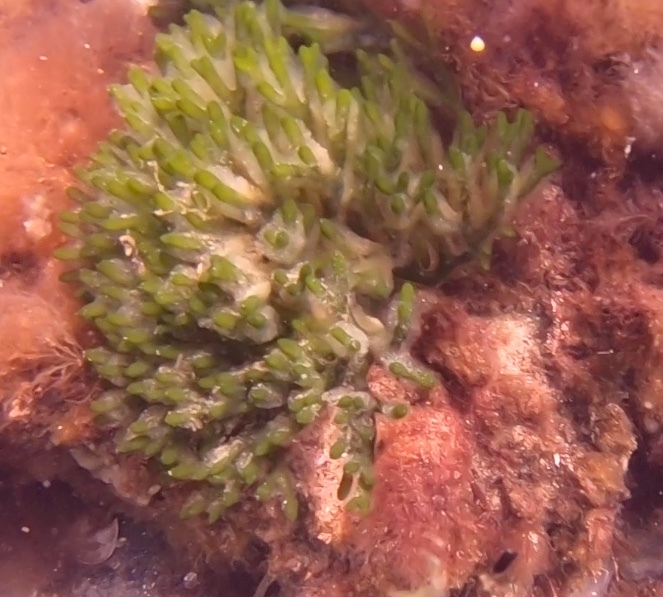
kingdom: Plantae
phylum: Chlorophyta
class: Ulvophyceae
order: Bryopsidales
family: Codiaceae
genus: Codium
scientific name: Codium fragile
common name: Dead man's fingers
